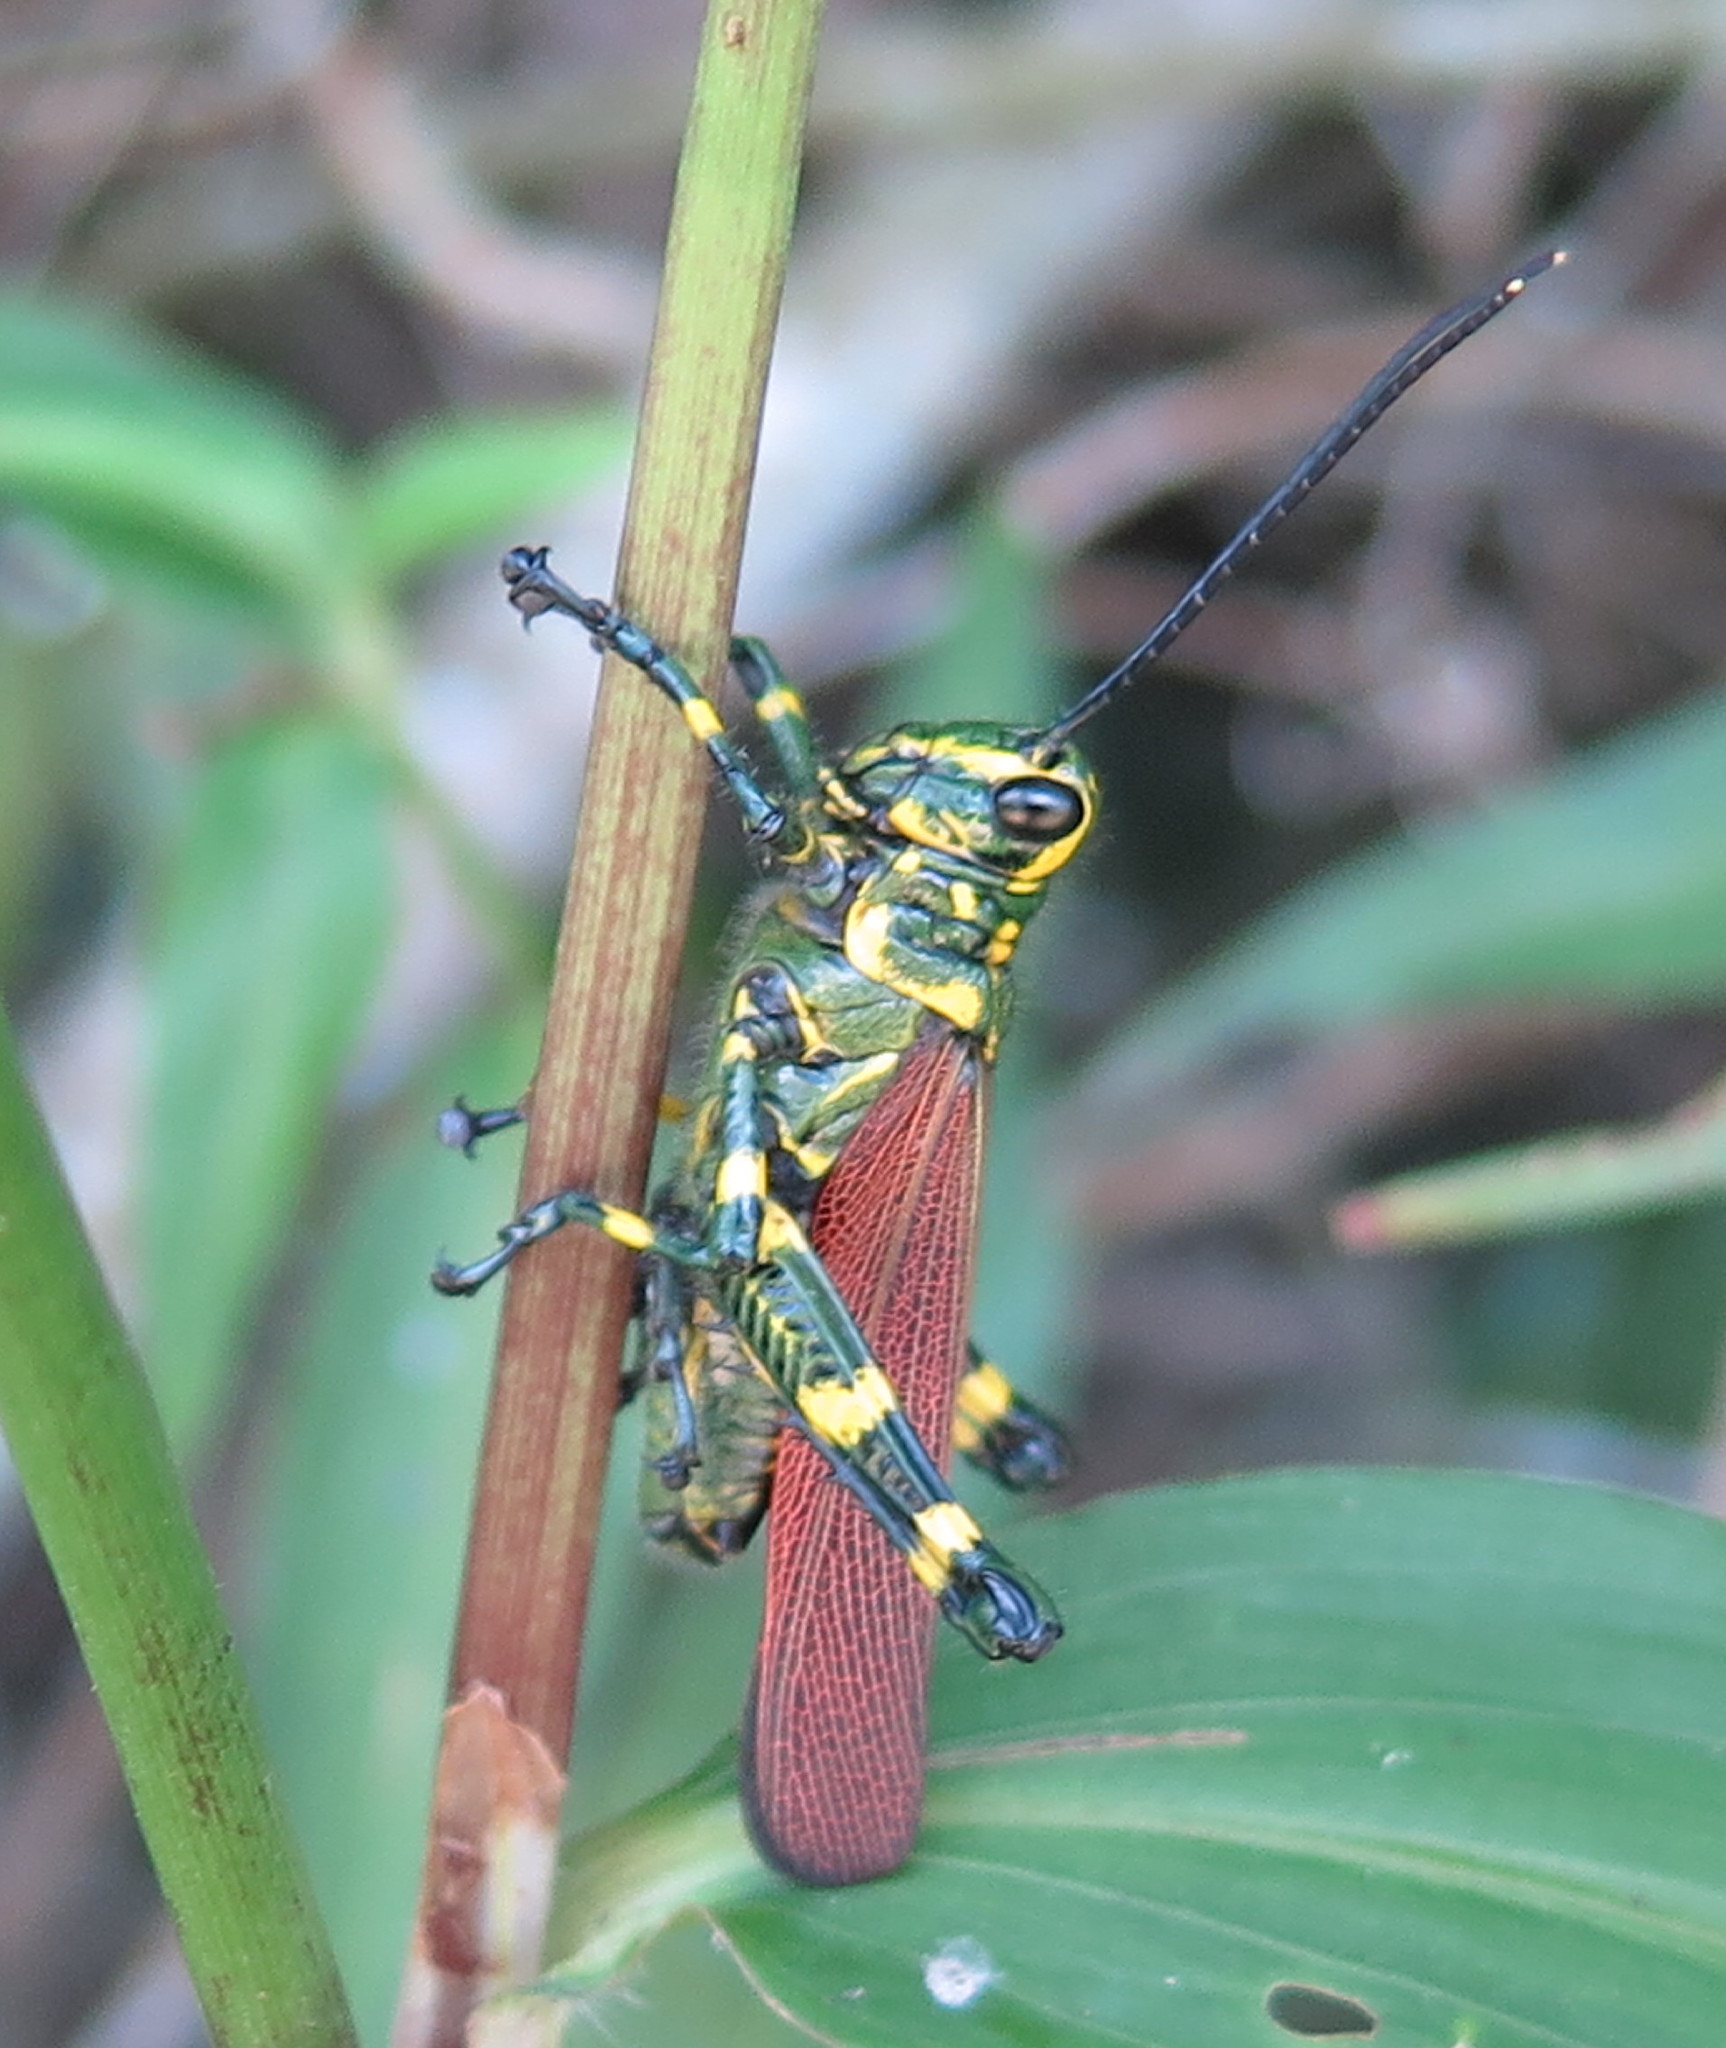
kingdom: Animalia
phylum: Arthropoda
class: Insecta
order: Orthoptera
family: Romaleidae
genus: Chromacris
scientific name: Chromacris speciosa
